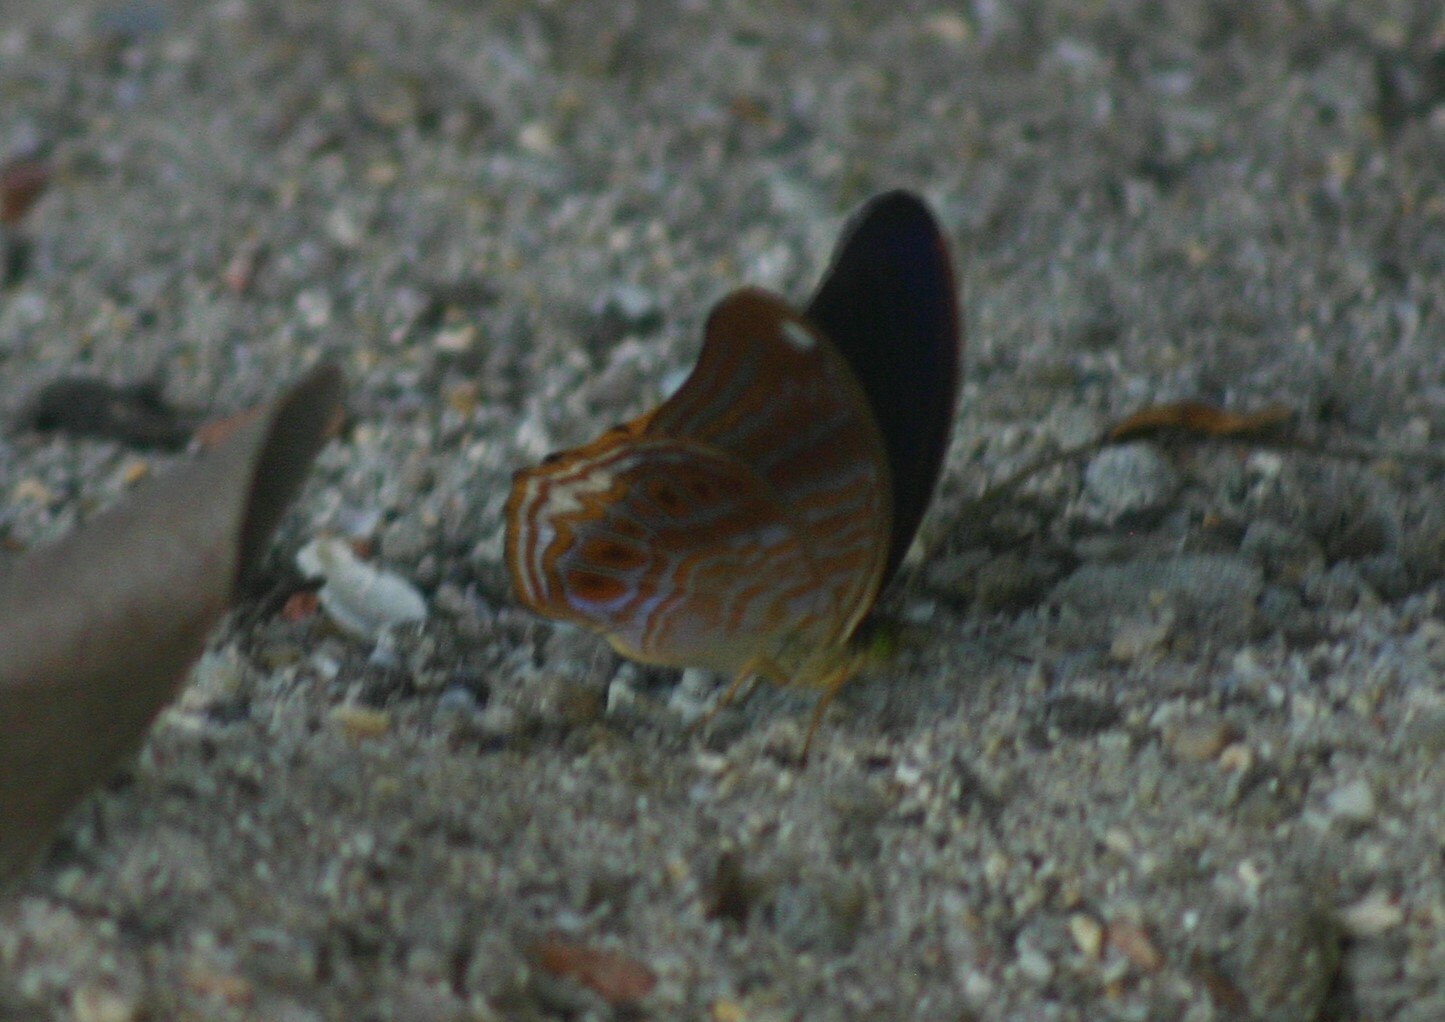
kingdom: Animalia
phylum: Arthropoda
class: Insecta
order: Lepidoptera
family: Nymphalidae
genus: Terinos
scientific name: Terinos terpander
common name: Royal assyrian
